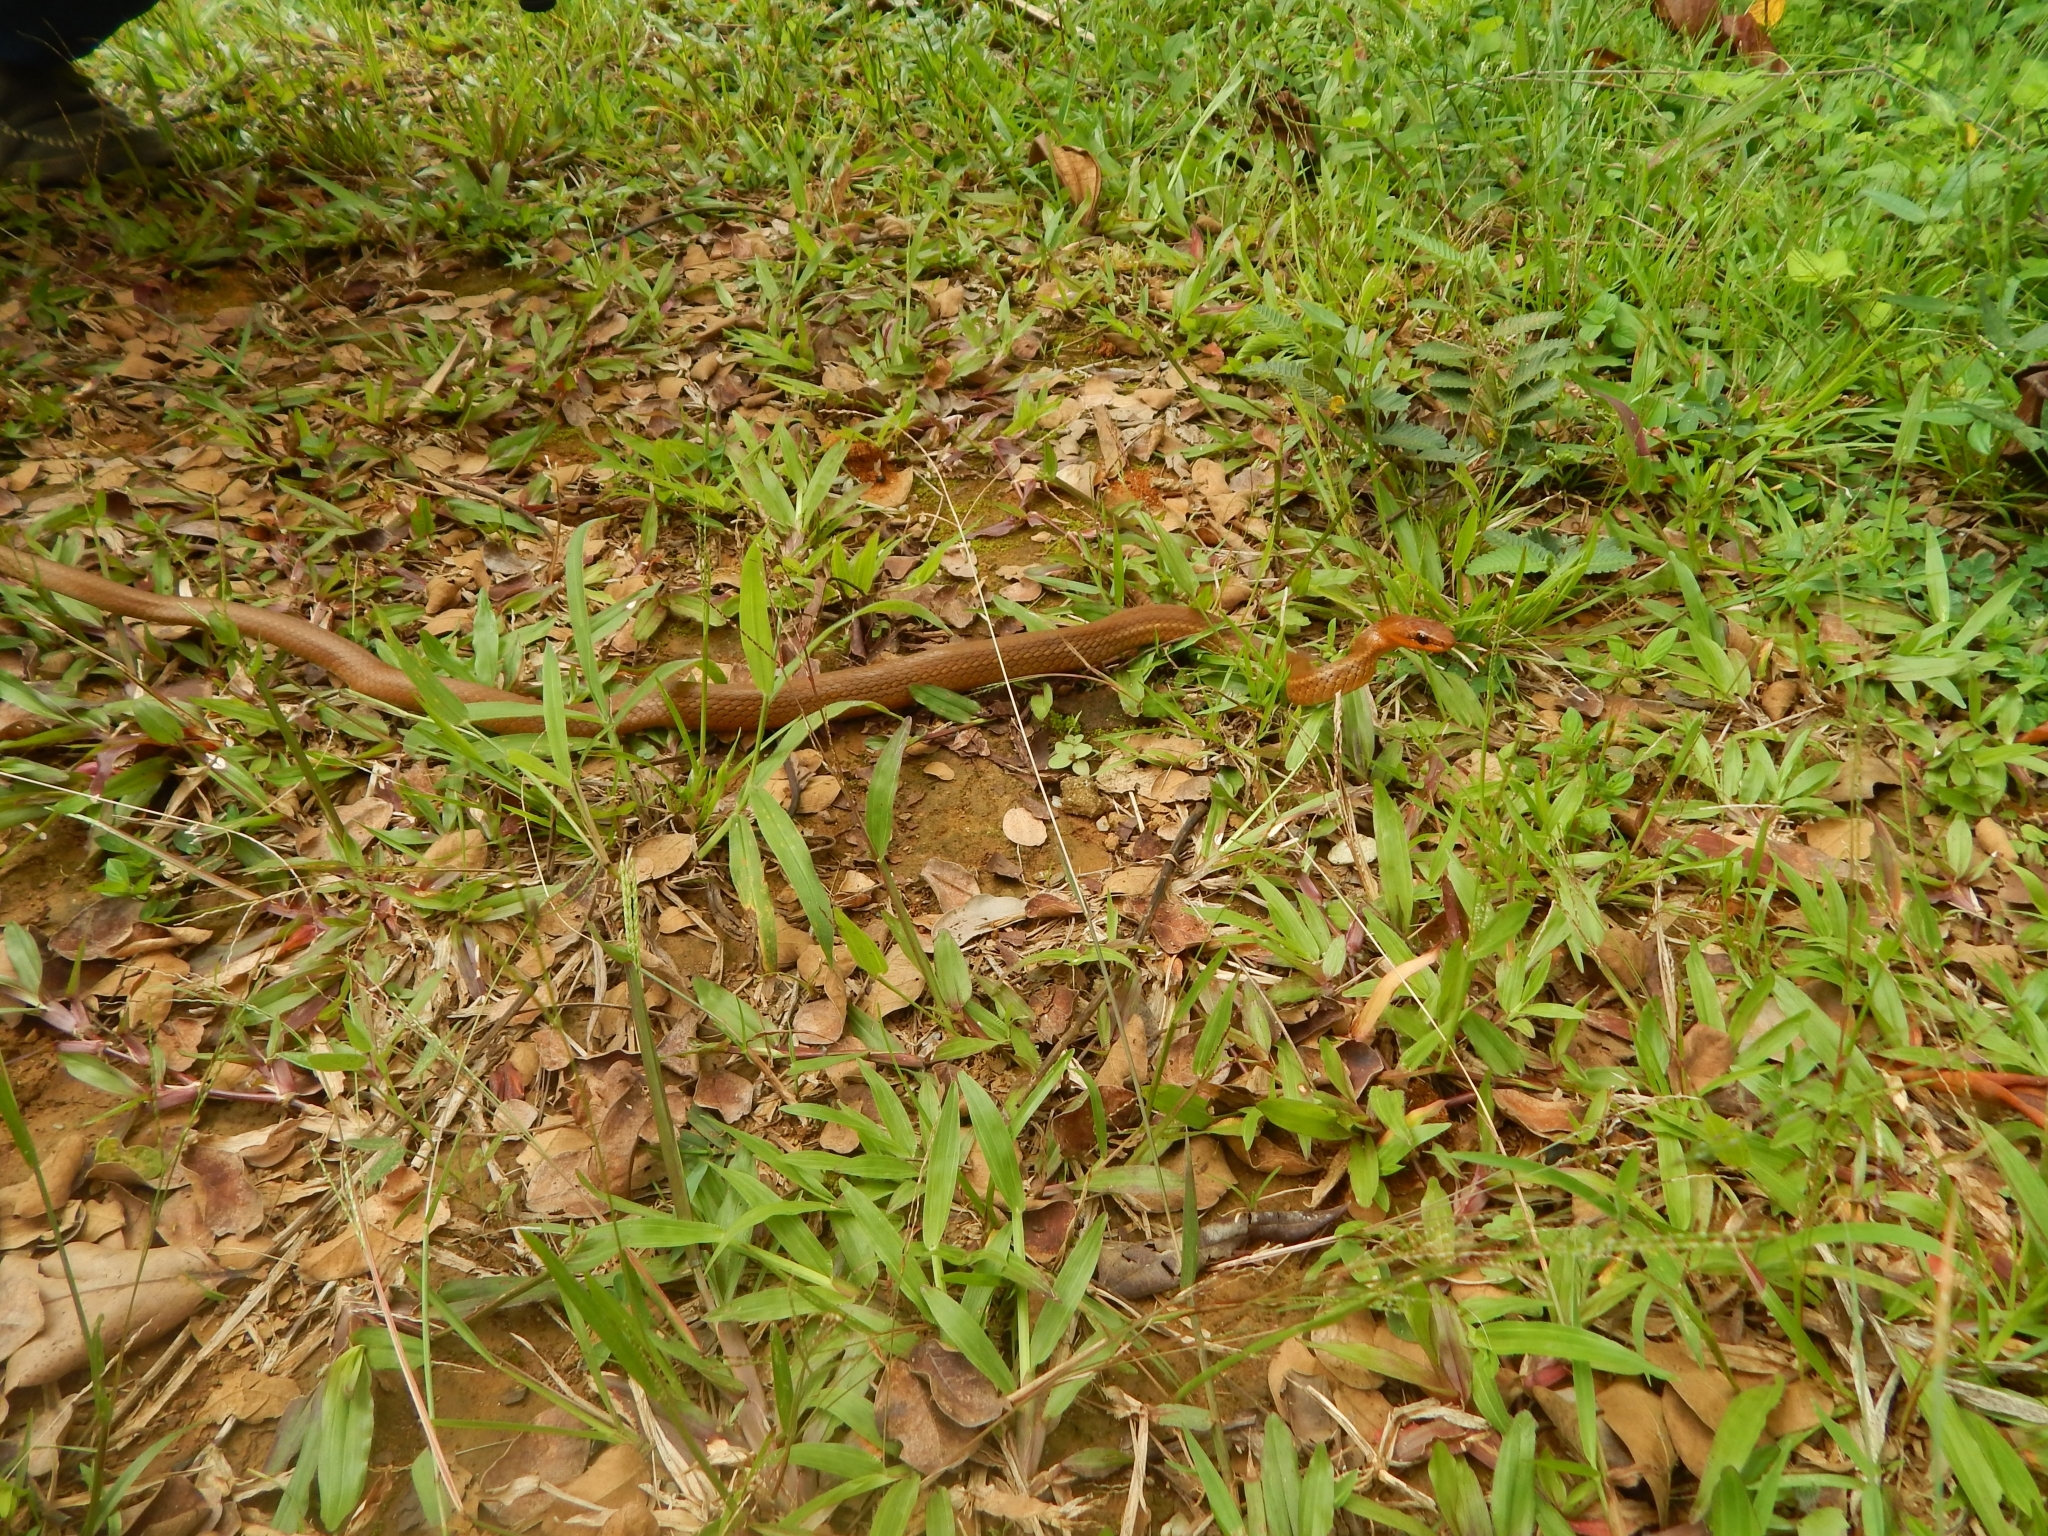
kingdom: Animalia
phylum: Chordata
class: Squamata
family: Colubridae
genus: Mastigodryas
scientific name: Mastigodryas boddaerti
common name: Boddaert's tropical racer
